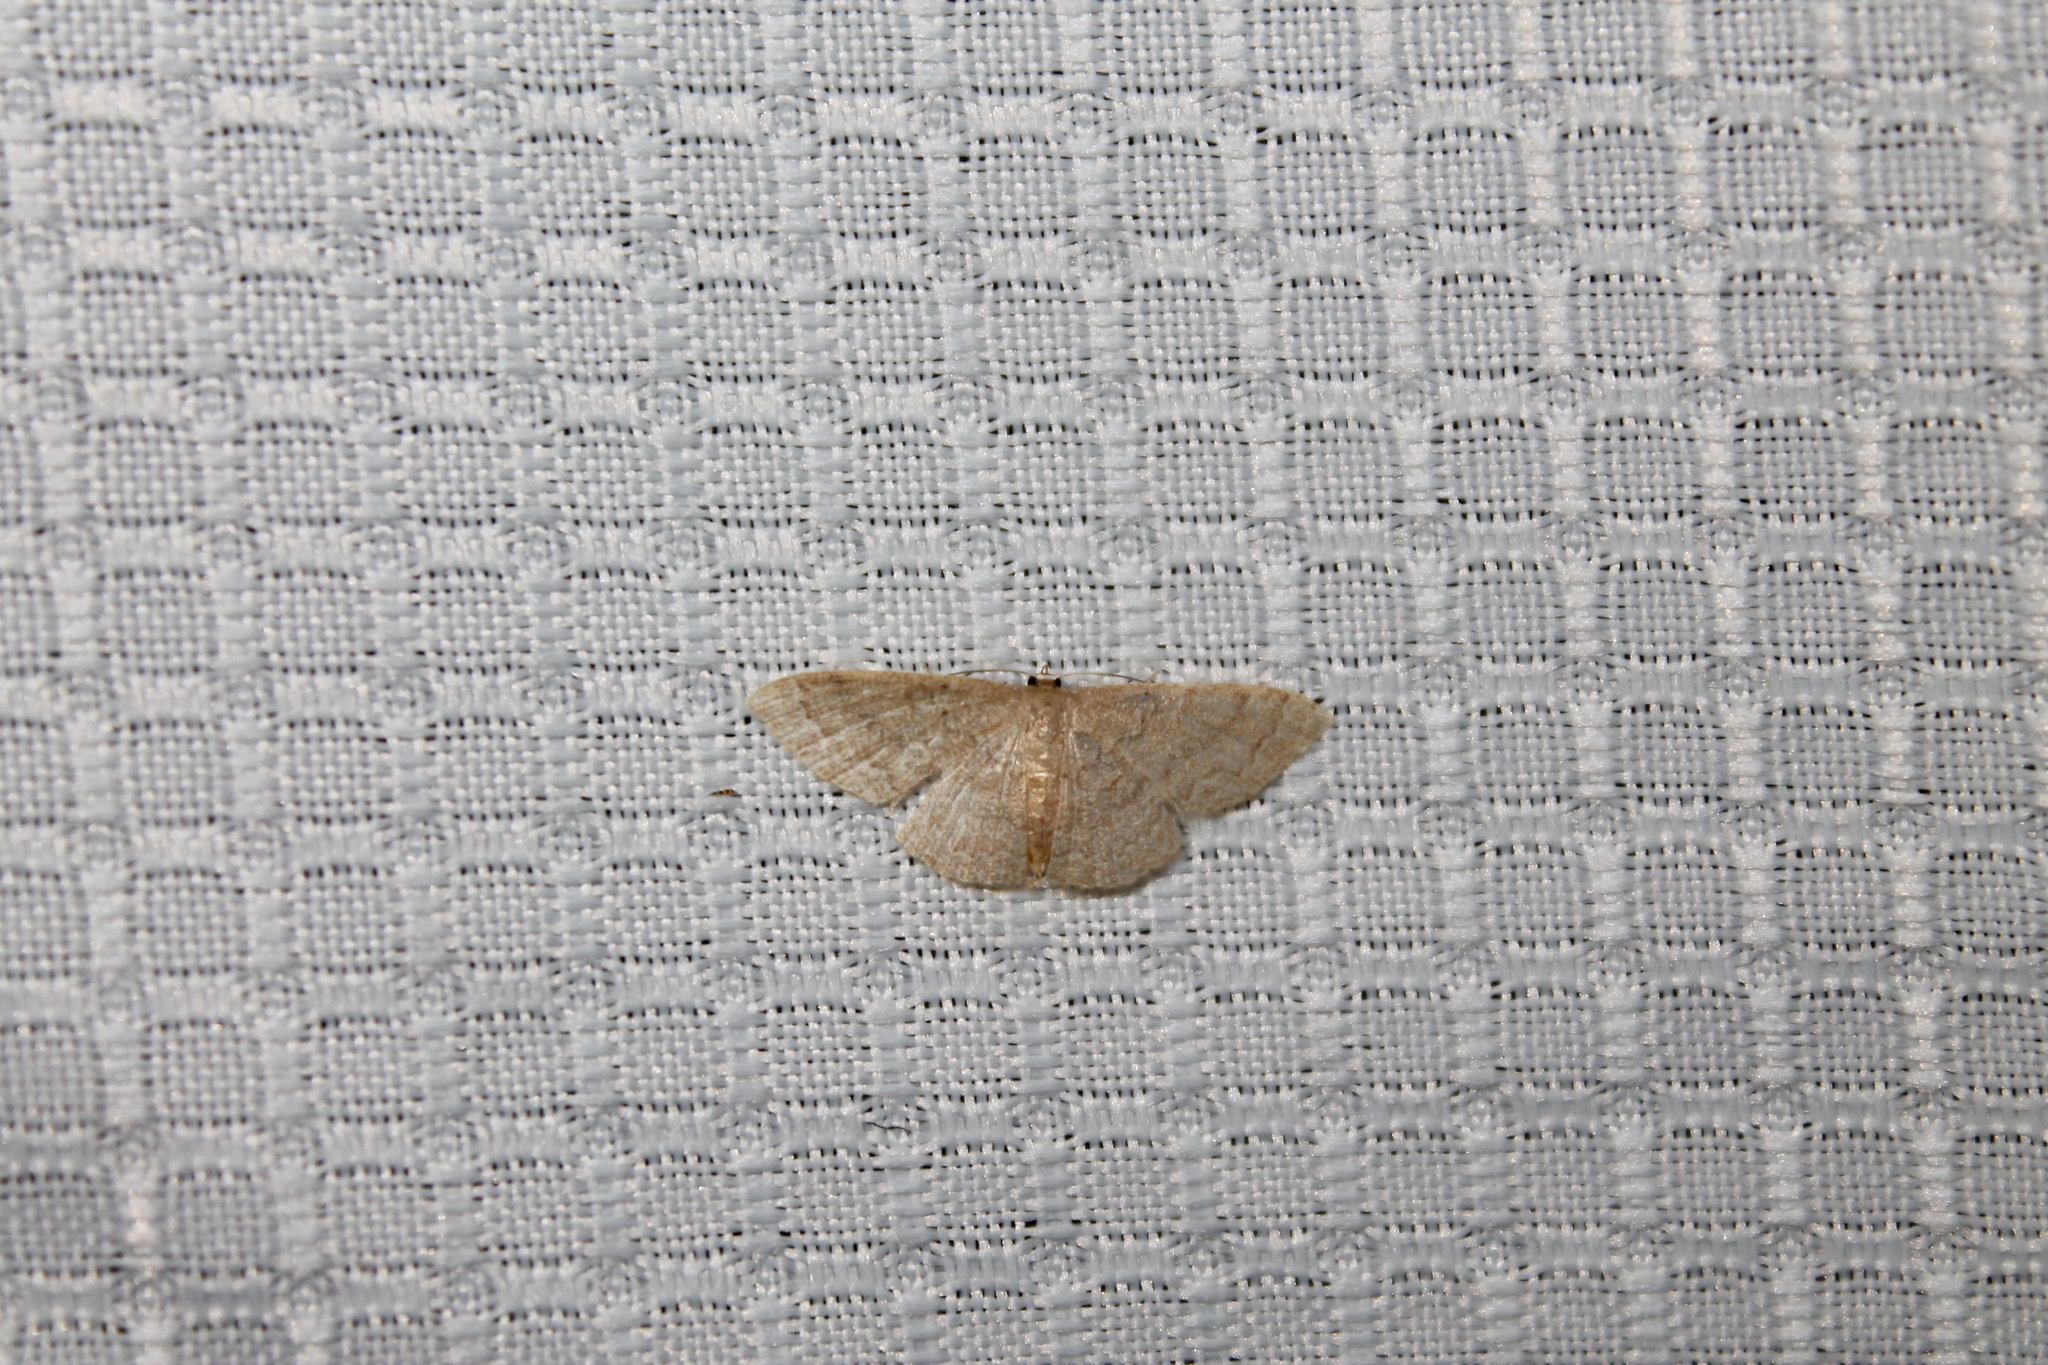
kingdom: Animalia
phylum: Arthropoda
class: Insecta
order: Lepidoptera
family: Geometridae
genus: Pleuroprucha
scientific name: Pleuroprucha insulsaria
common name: Common tan wave
